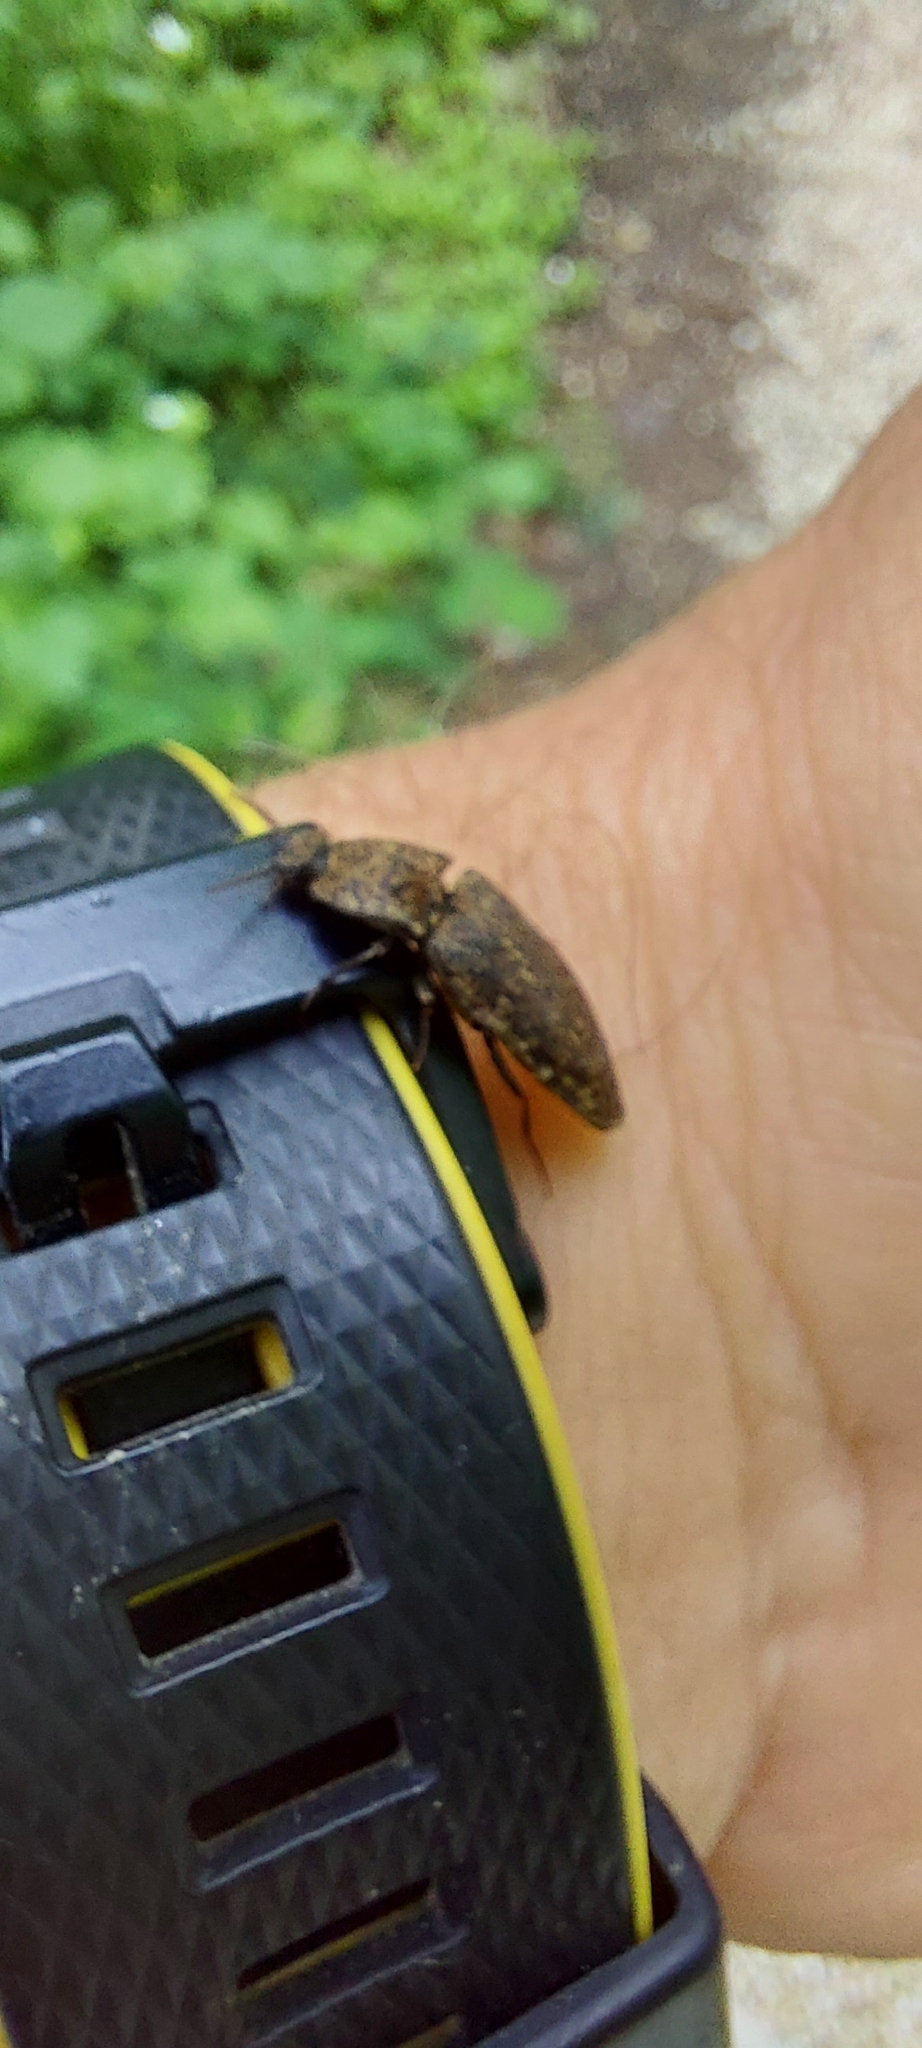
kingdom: Animalia
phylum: Arthropoda
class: Insecta
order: Coleoptera
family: Elateridae
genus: Agrypnus
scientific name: Agrypnus murinus
